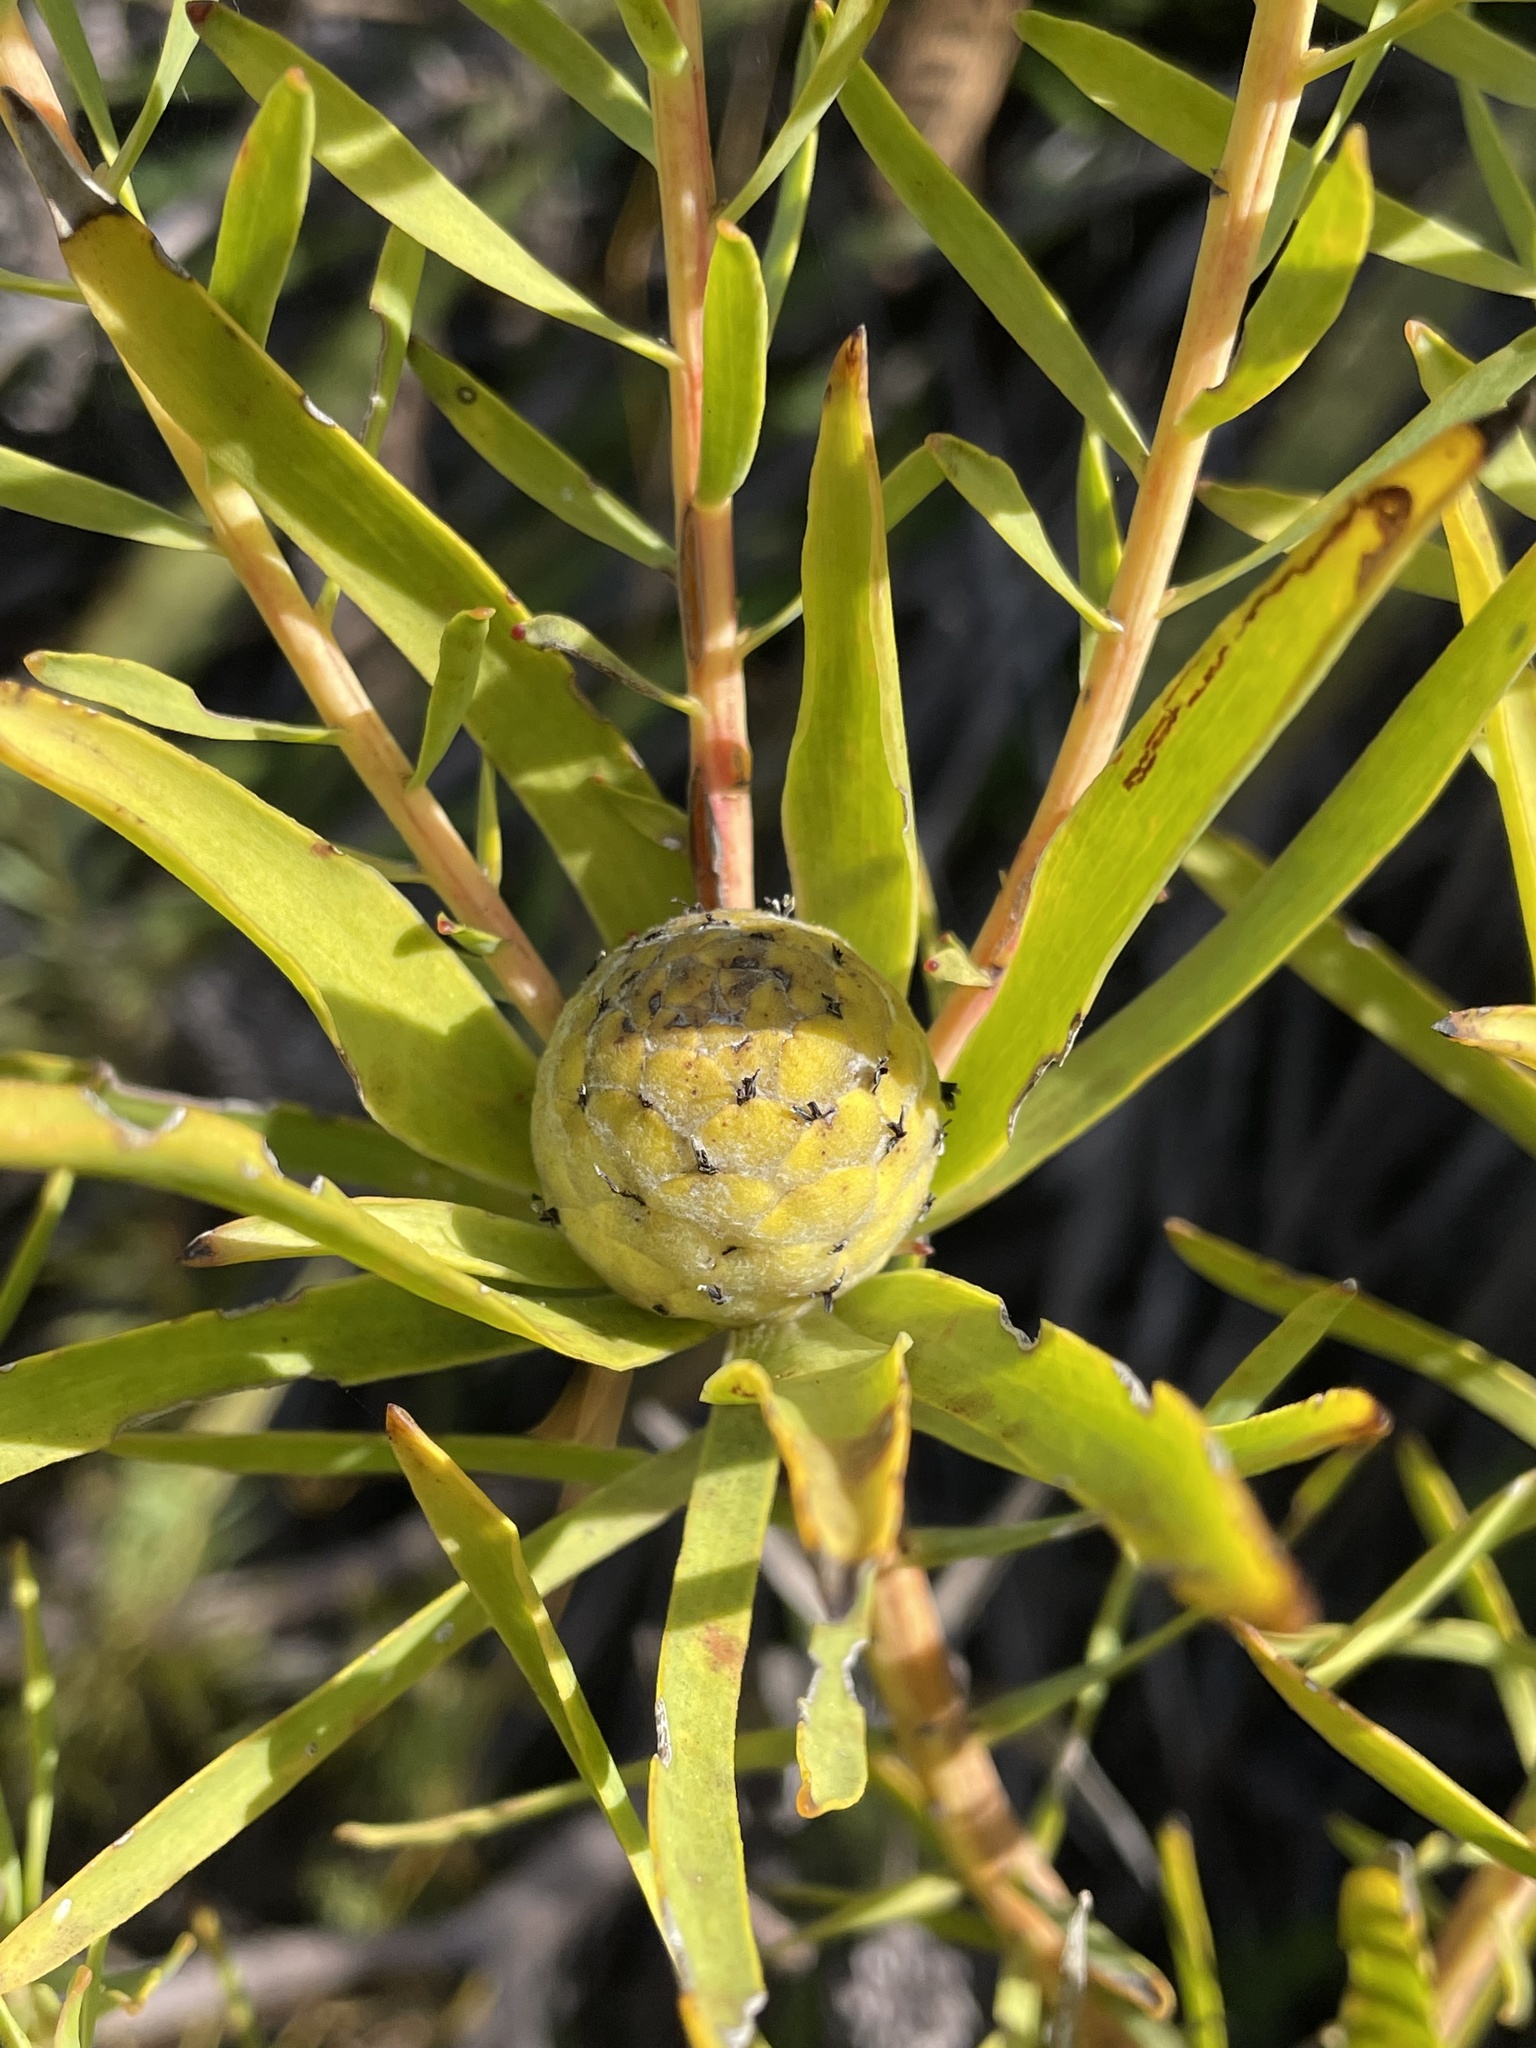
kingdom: Plantae
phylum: Tracheophyta
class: Magnoliopsida
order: Proteales
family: Proteaceae
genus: Leucadendron
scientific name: Leucadendron salignum
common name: Common sunshine conebush
